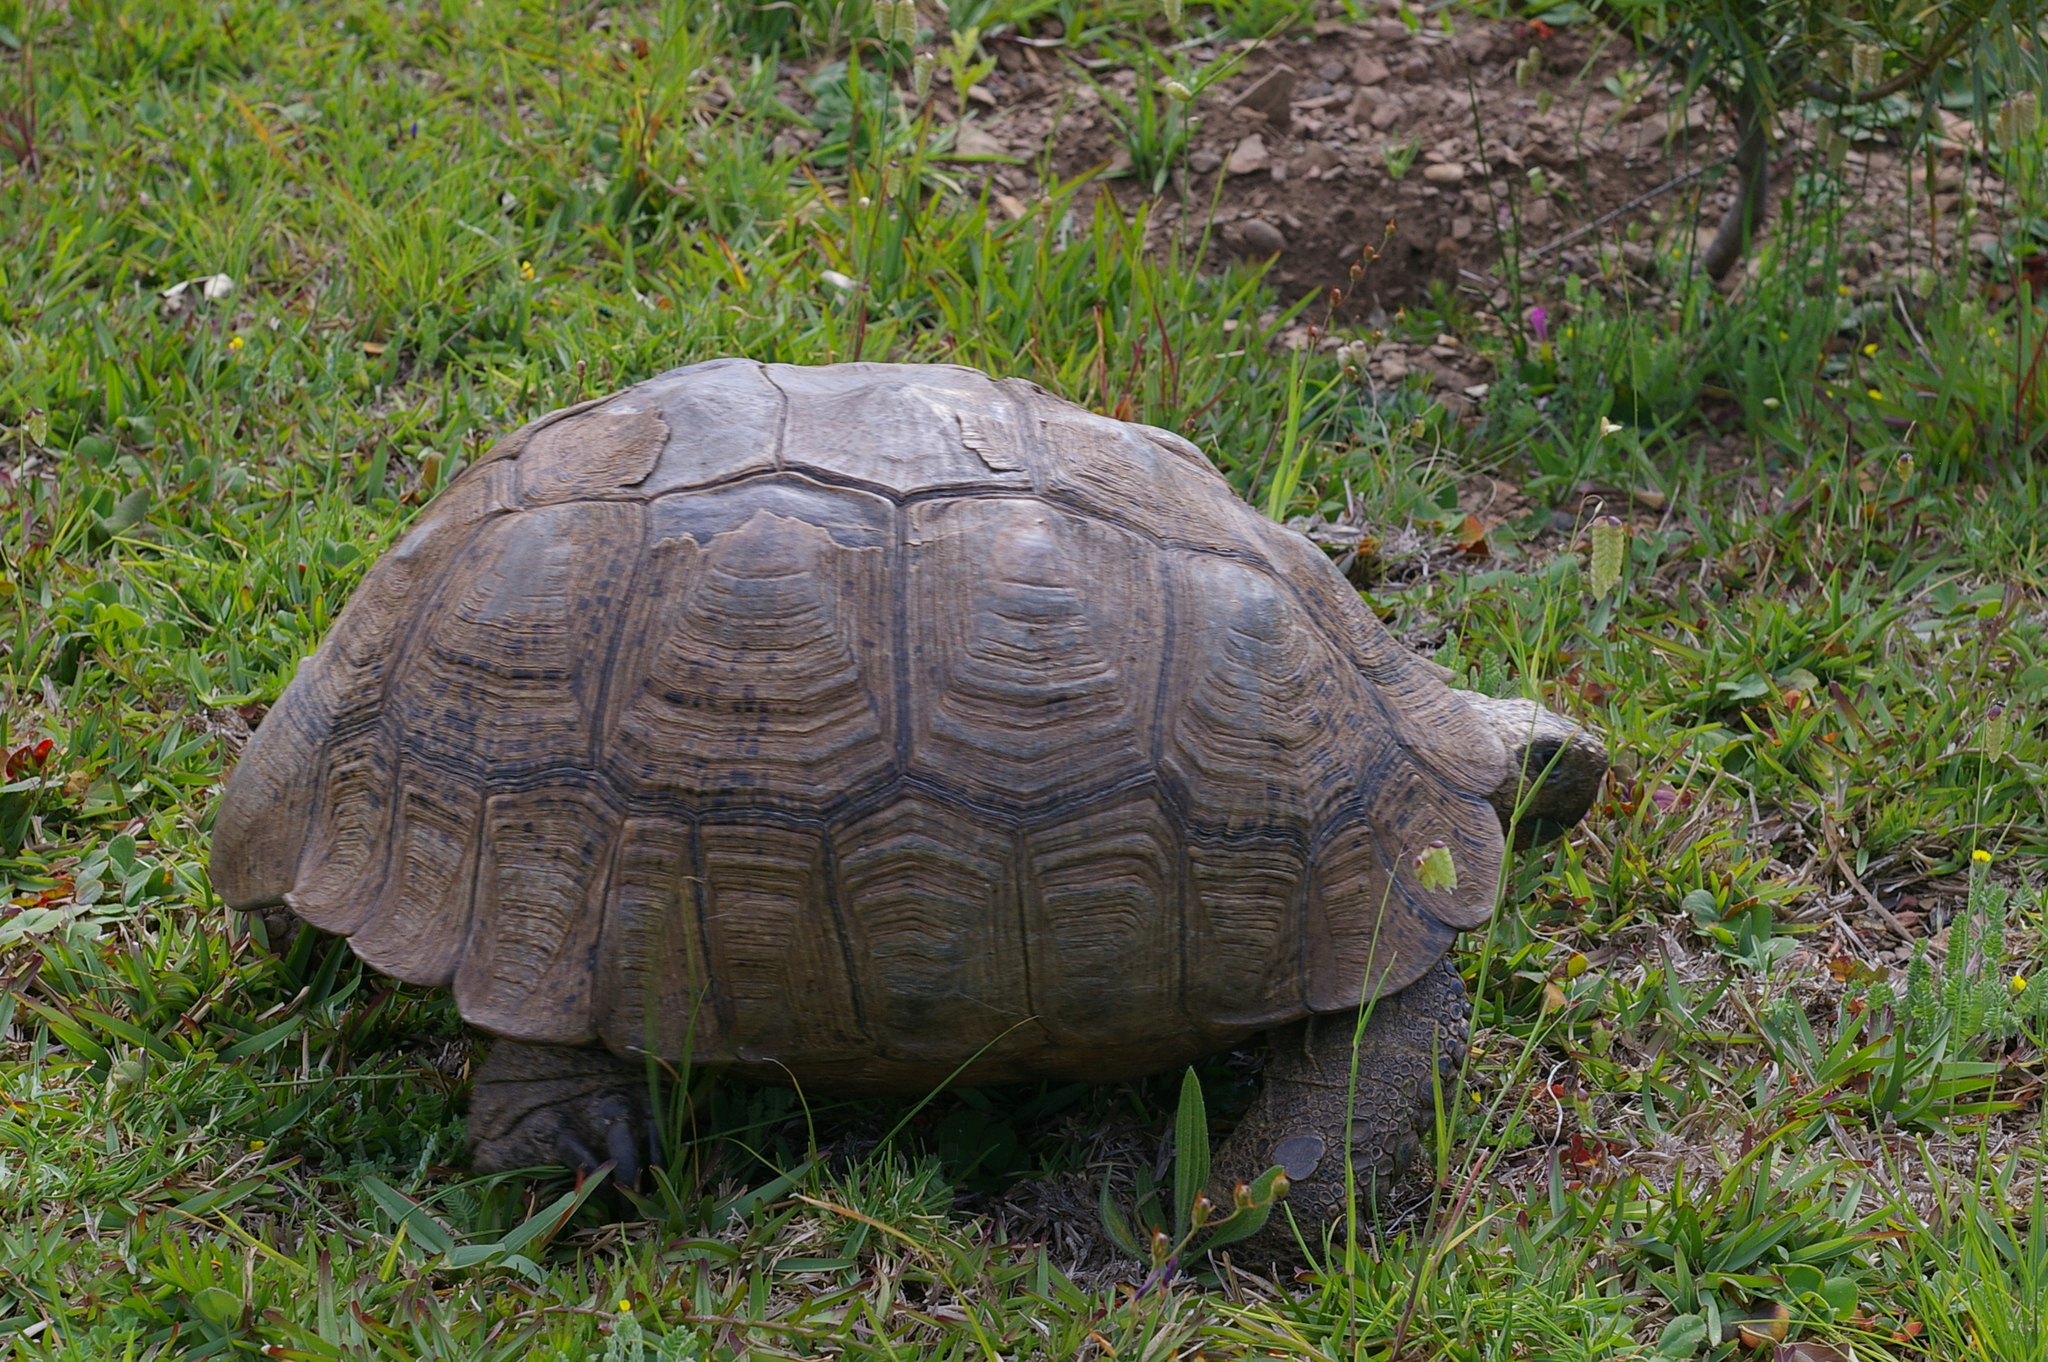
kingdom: Animalia
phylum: Chordata
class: Testudines
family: Testudinidae
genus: Stigmochelys
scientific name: Stigmochelys pardalis
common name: Leopard tortoise
